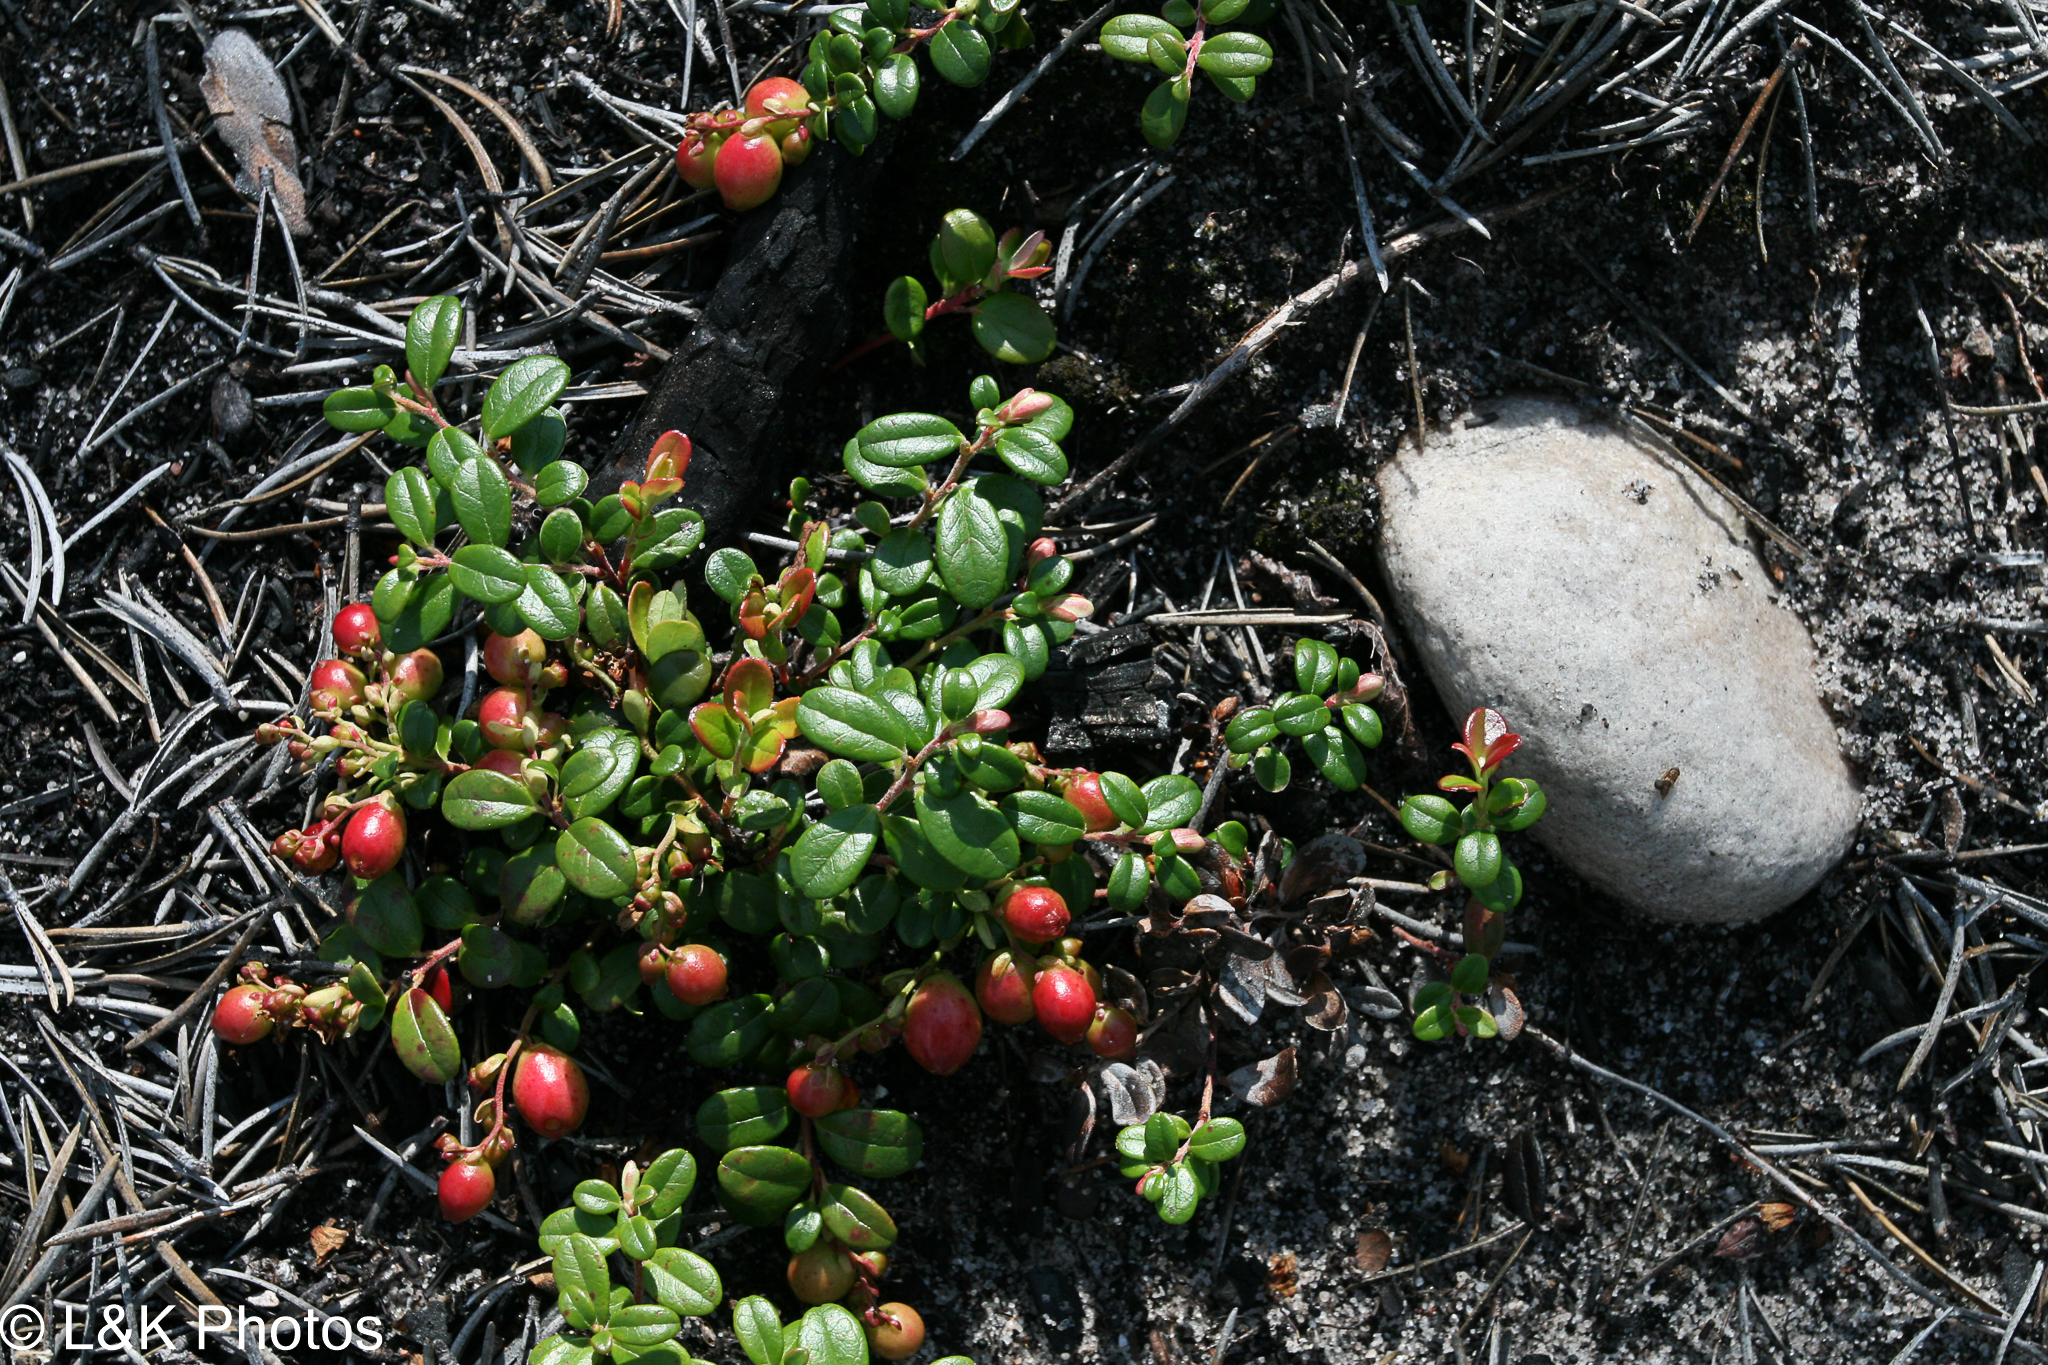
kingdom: Plantae
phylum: Tracheophyta
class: Magnoliopsida
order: Ericales
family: Ericaceae
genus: Vaccinium
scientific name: Vaccinium vitis-idaea
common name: Cowberry
